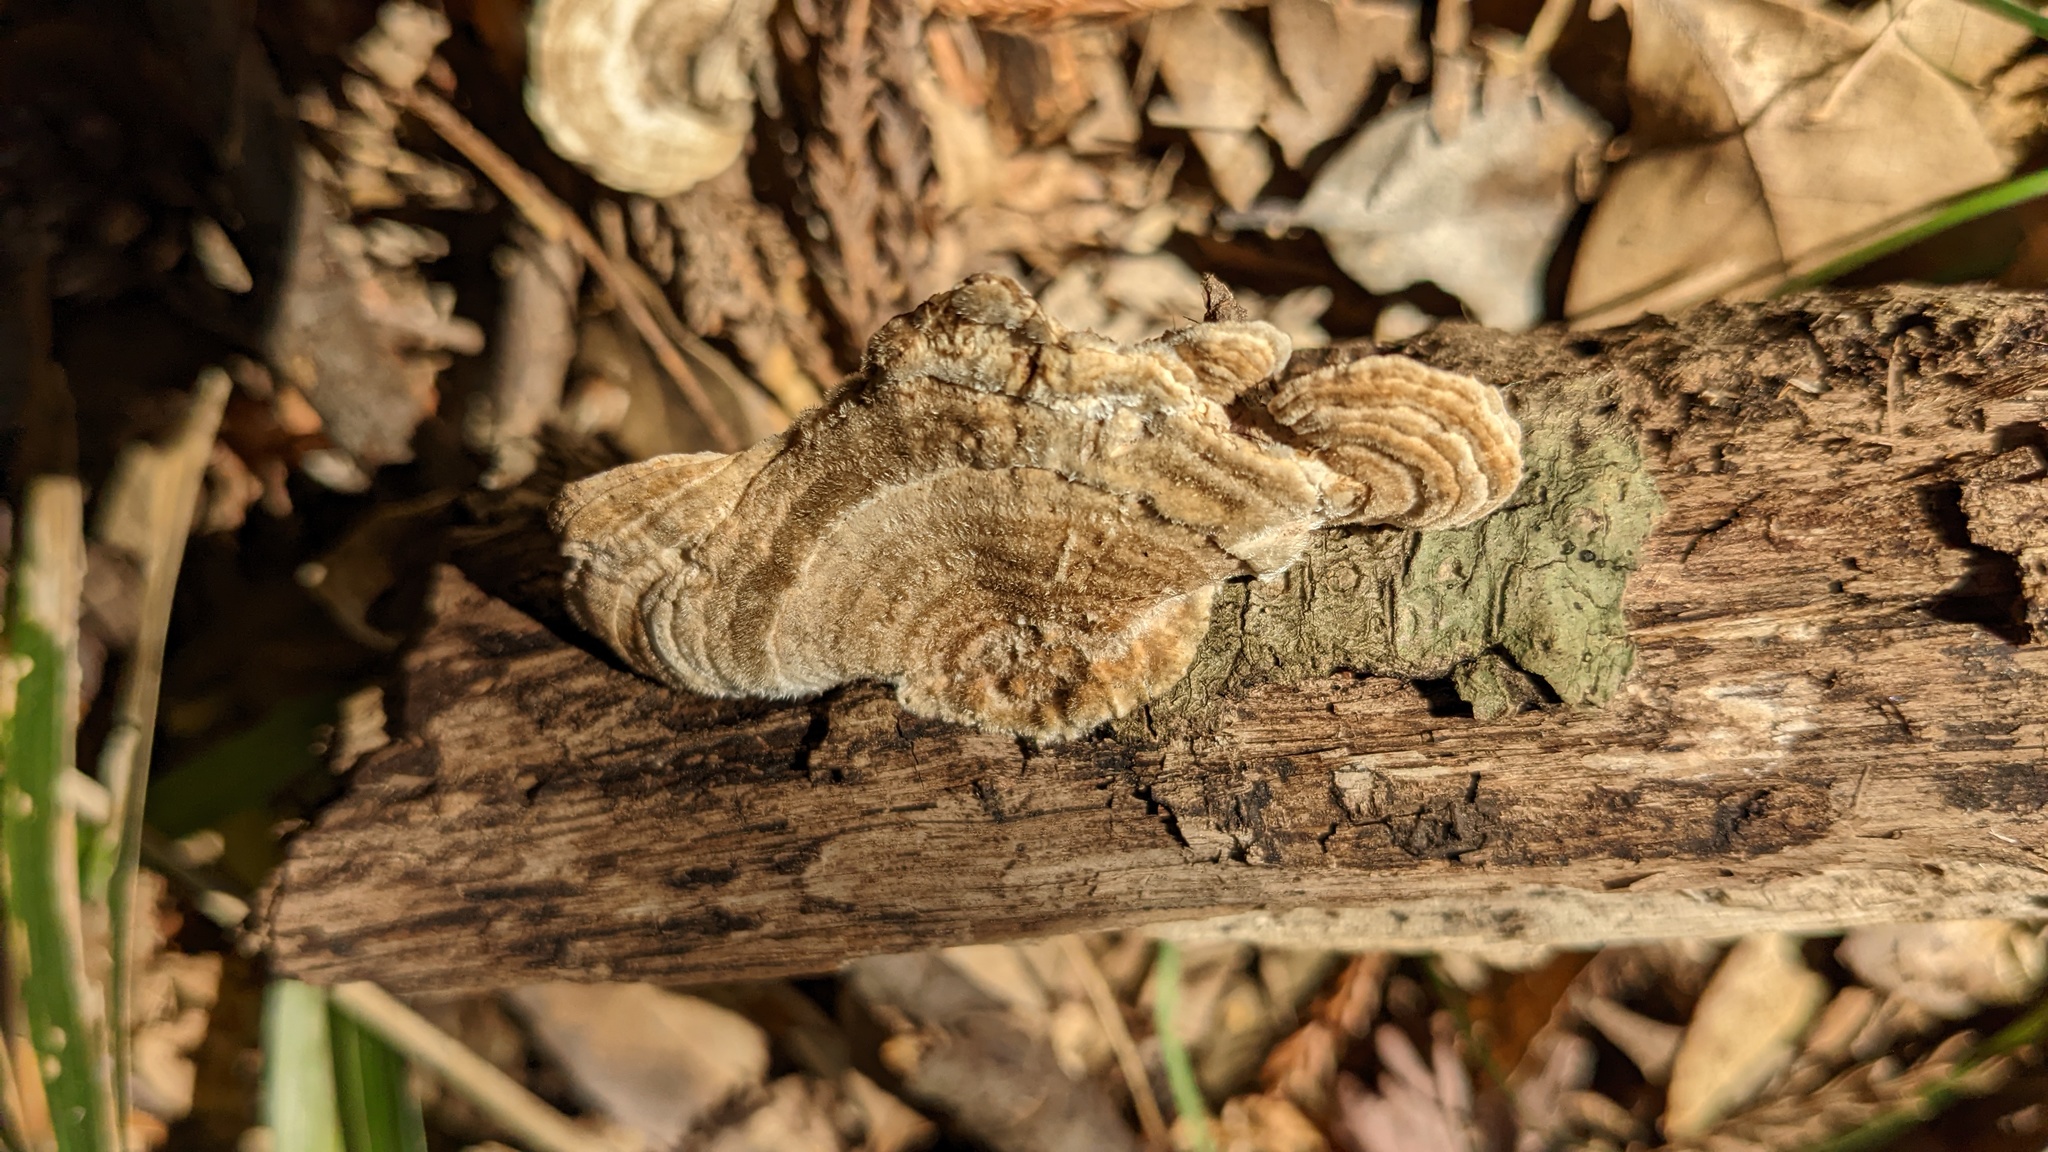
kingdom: Fungi
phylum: Basidiomycota
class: Agaricomycetes
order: Polyporales
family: Polyporaceae
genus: Lenzites
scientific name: Lenzites betulinus
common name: Birch mazegill
